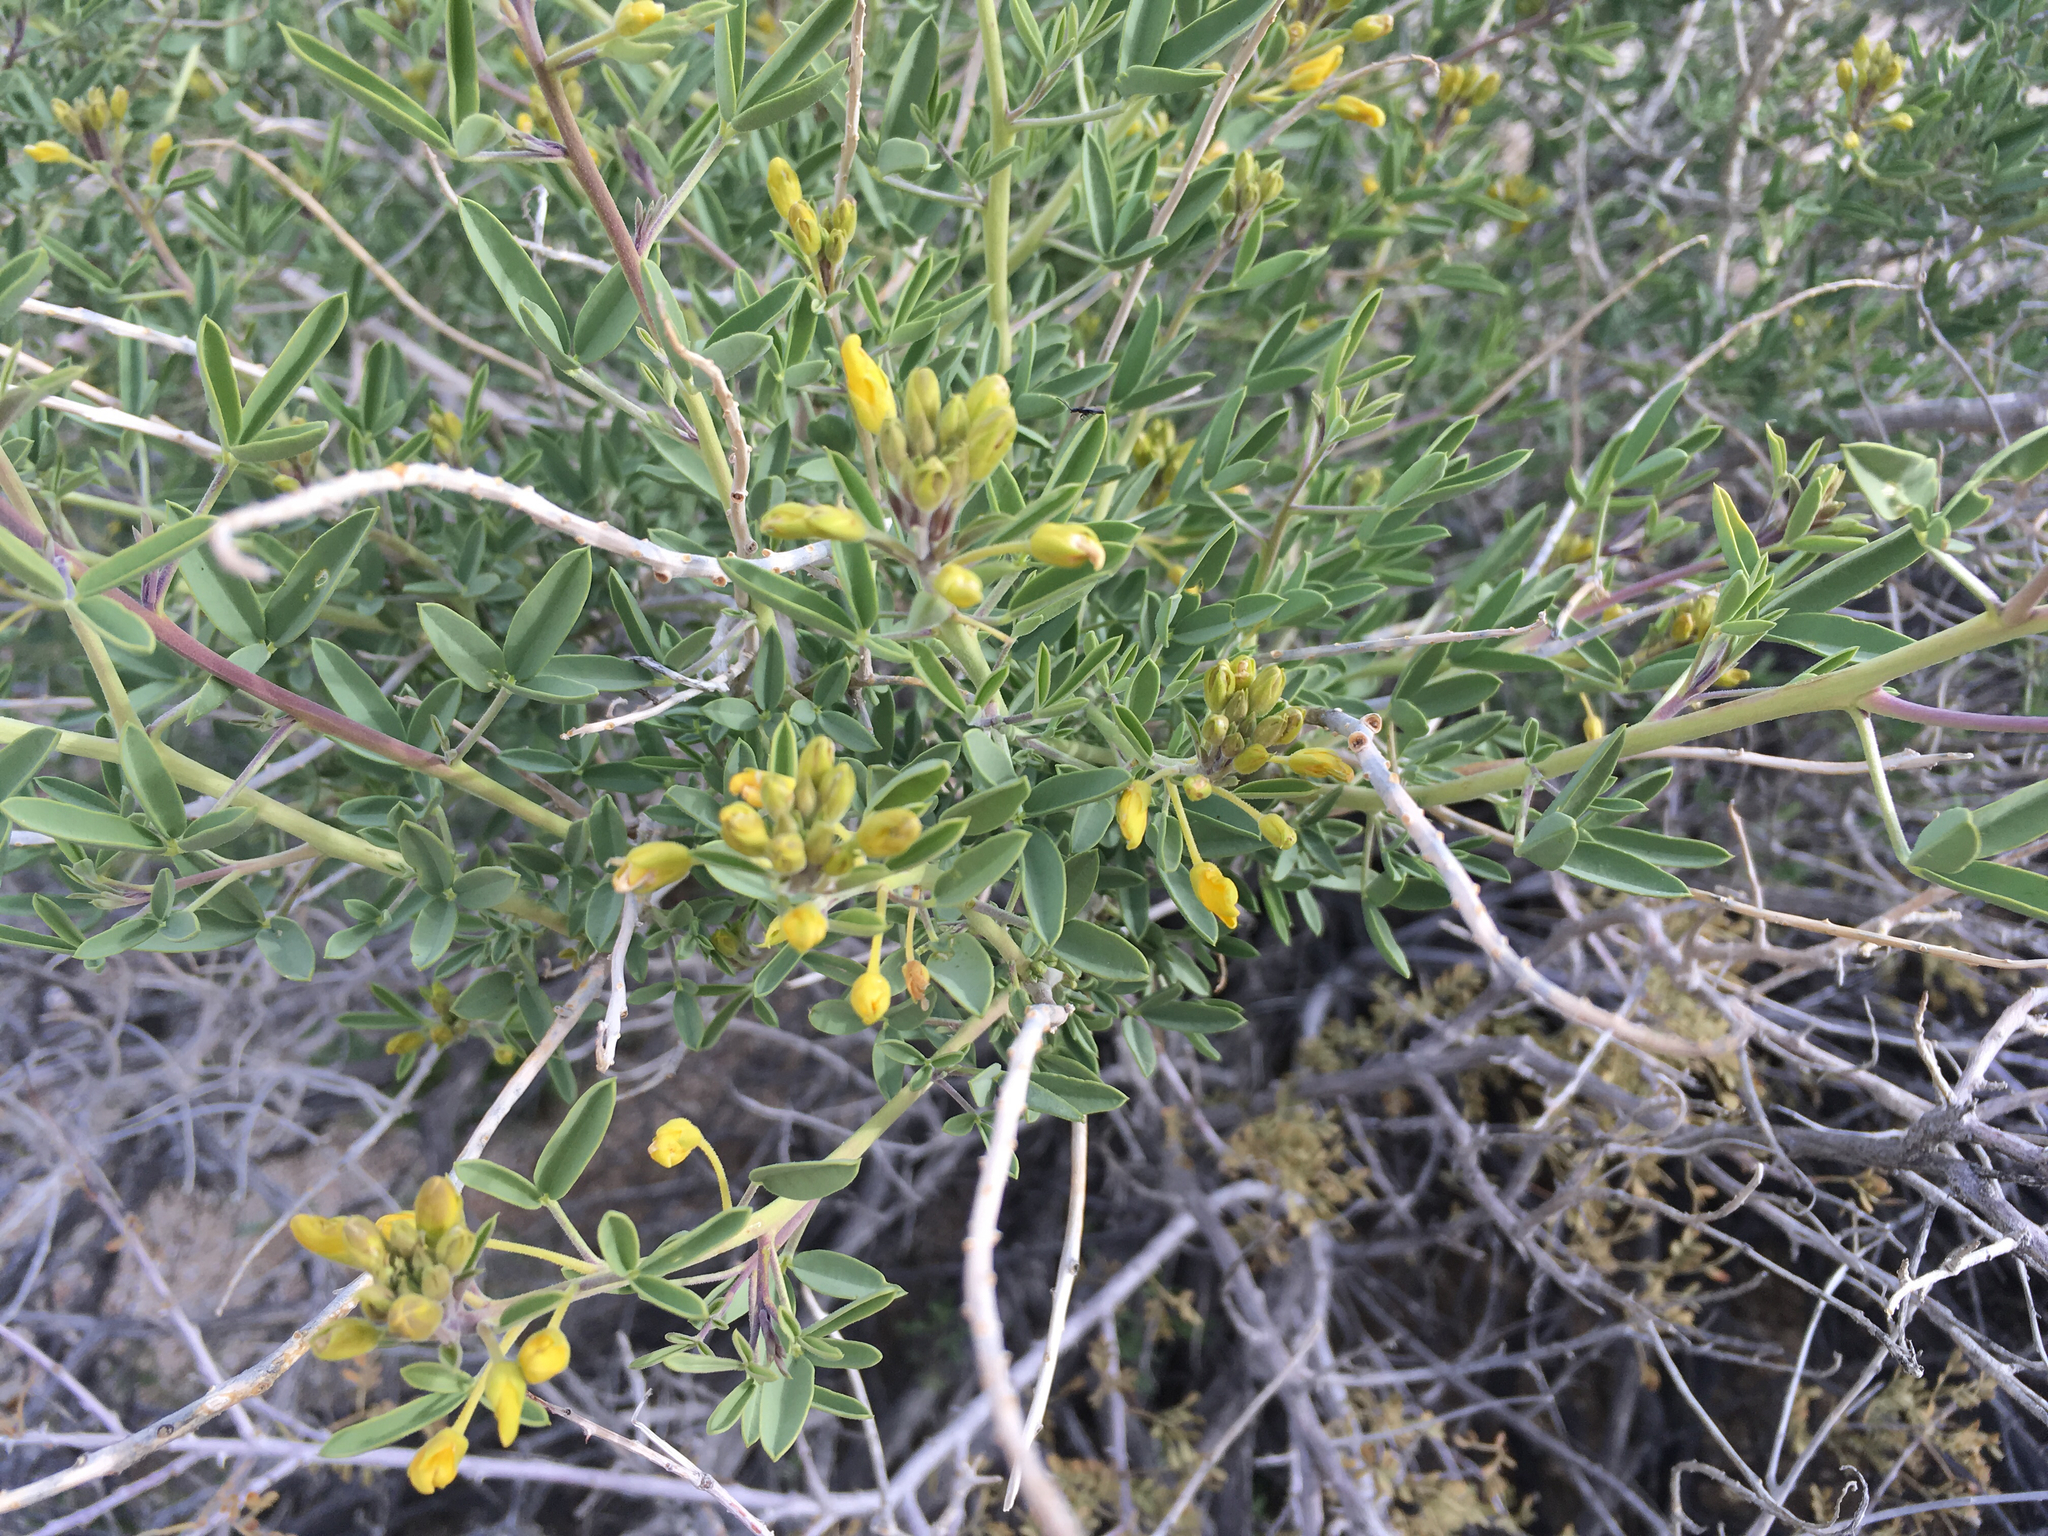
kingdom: Plantae
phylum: Tracheophyta
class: Magnoliopsida
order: Brassicales
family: Cleomaceae
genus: Cleomella
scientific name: Cleomella arborea
